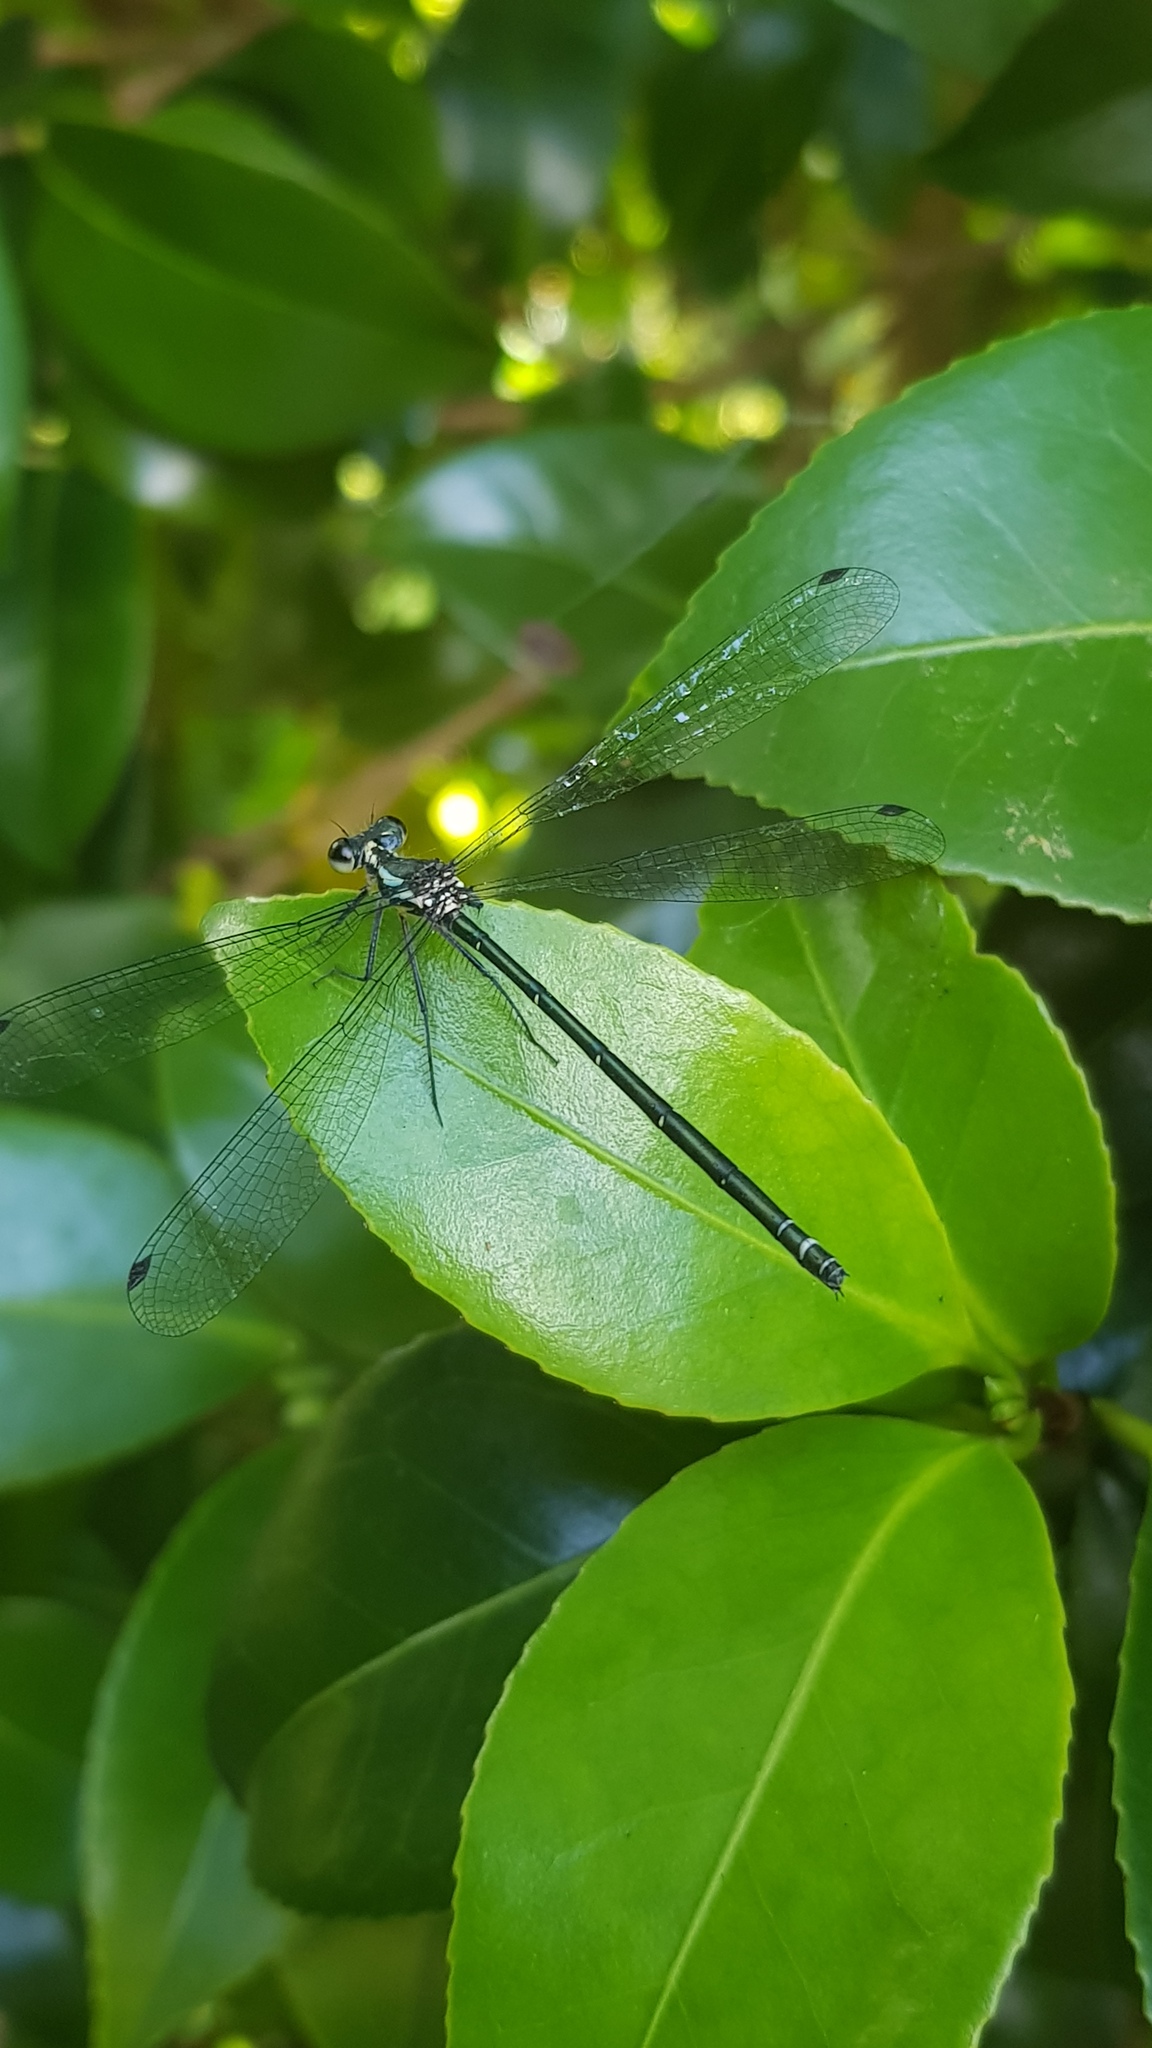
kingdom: Animalia
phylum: Arthropoda
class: Insecta
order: Odonata
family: Argiolestidae
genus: Austroargiolestes
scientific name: Austroargiolestes icteromelas
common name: Common flatwing
